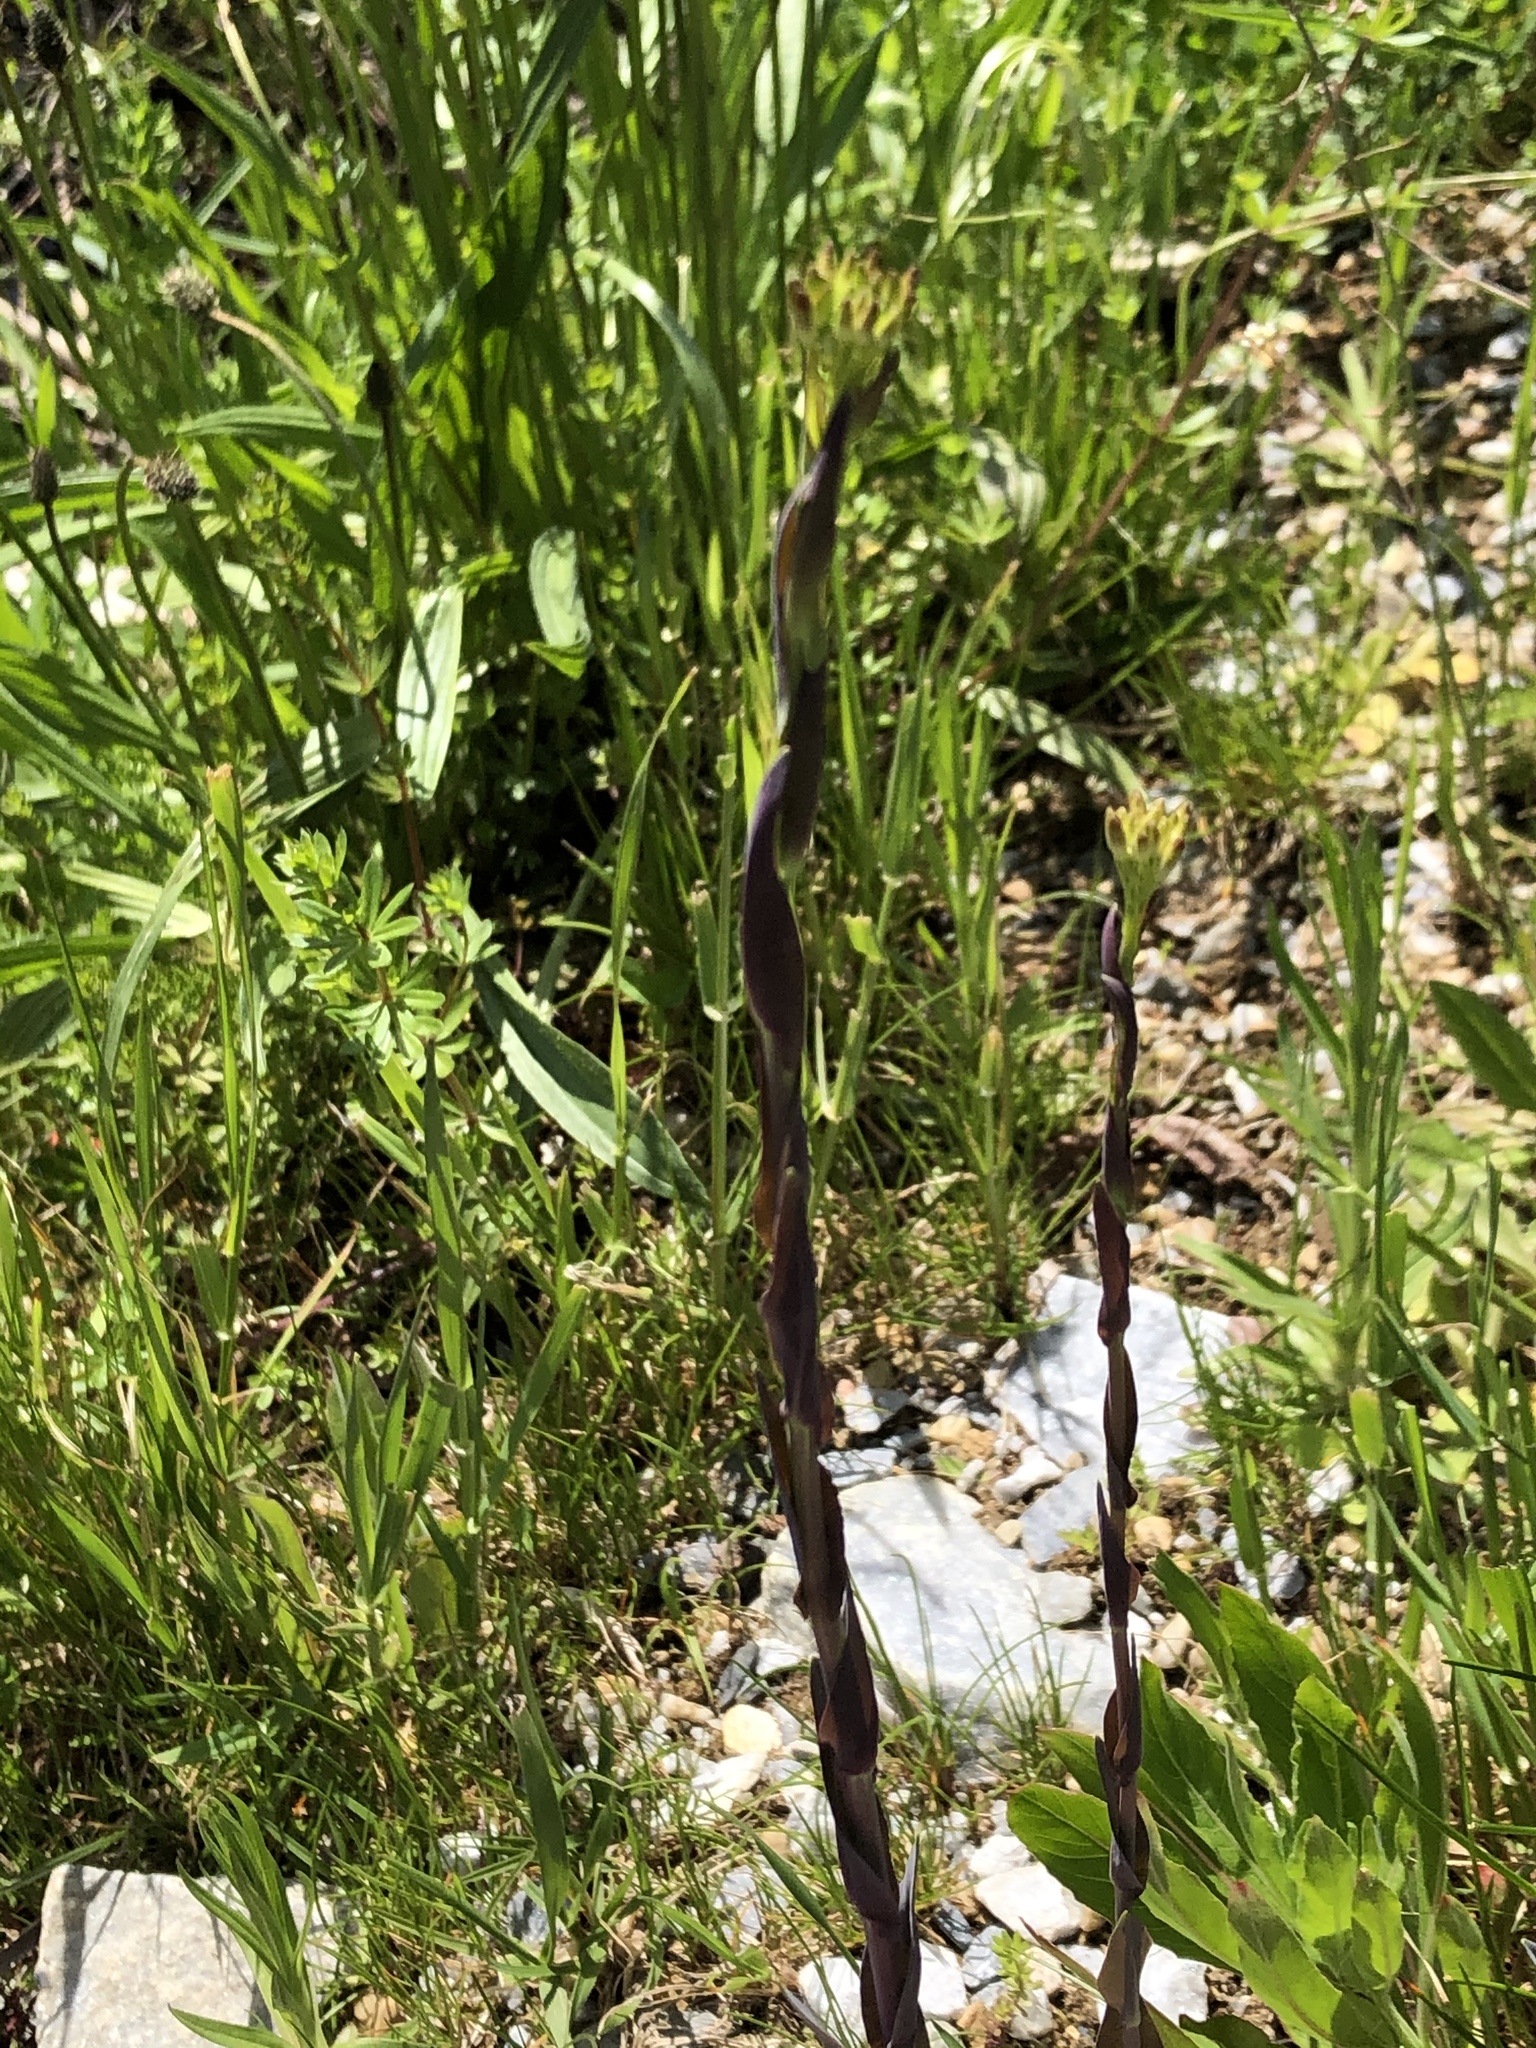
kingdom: Plantae
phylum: Tracheophyta
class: Magnoliopsida
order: Brassicales
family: Brassicaceae
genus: Turritis
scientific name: Turritis glabra
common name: Tower rockcress
